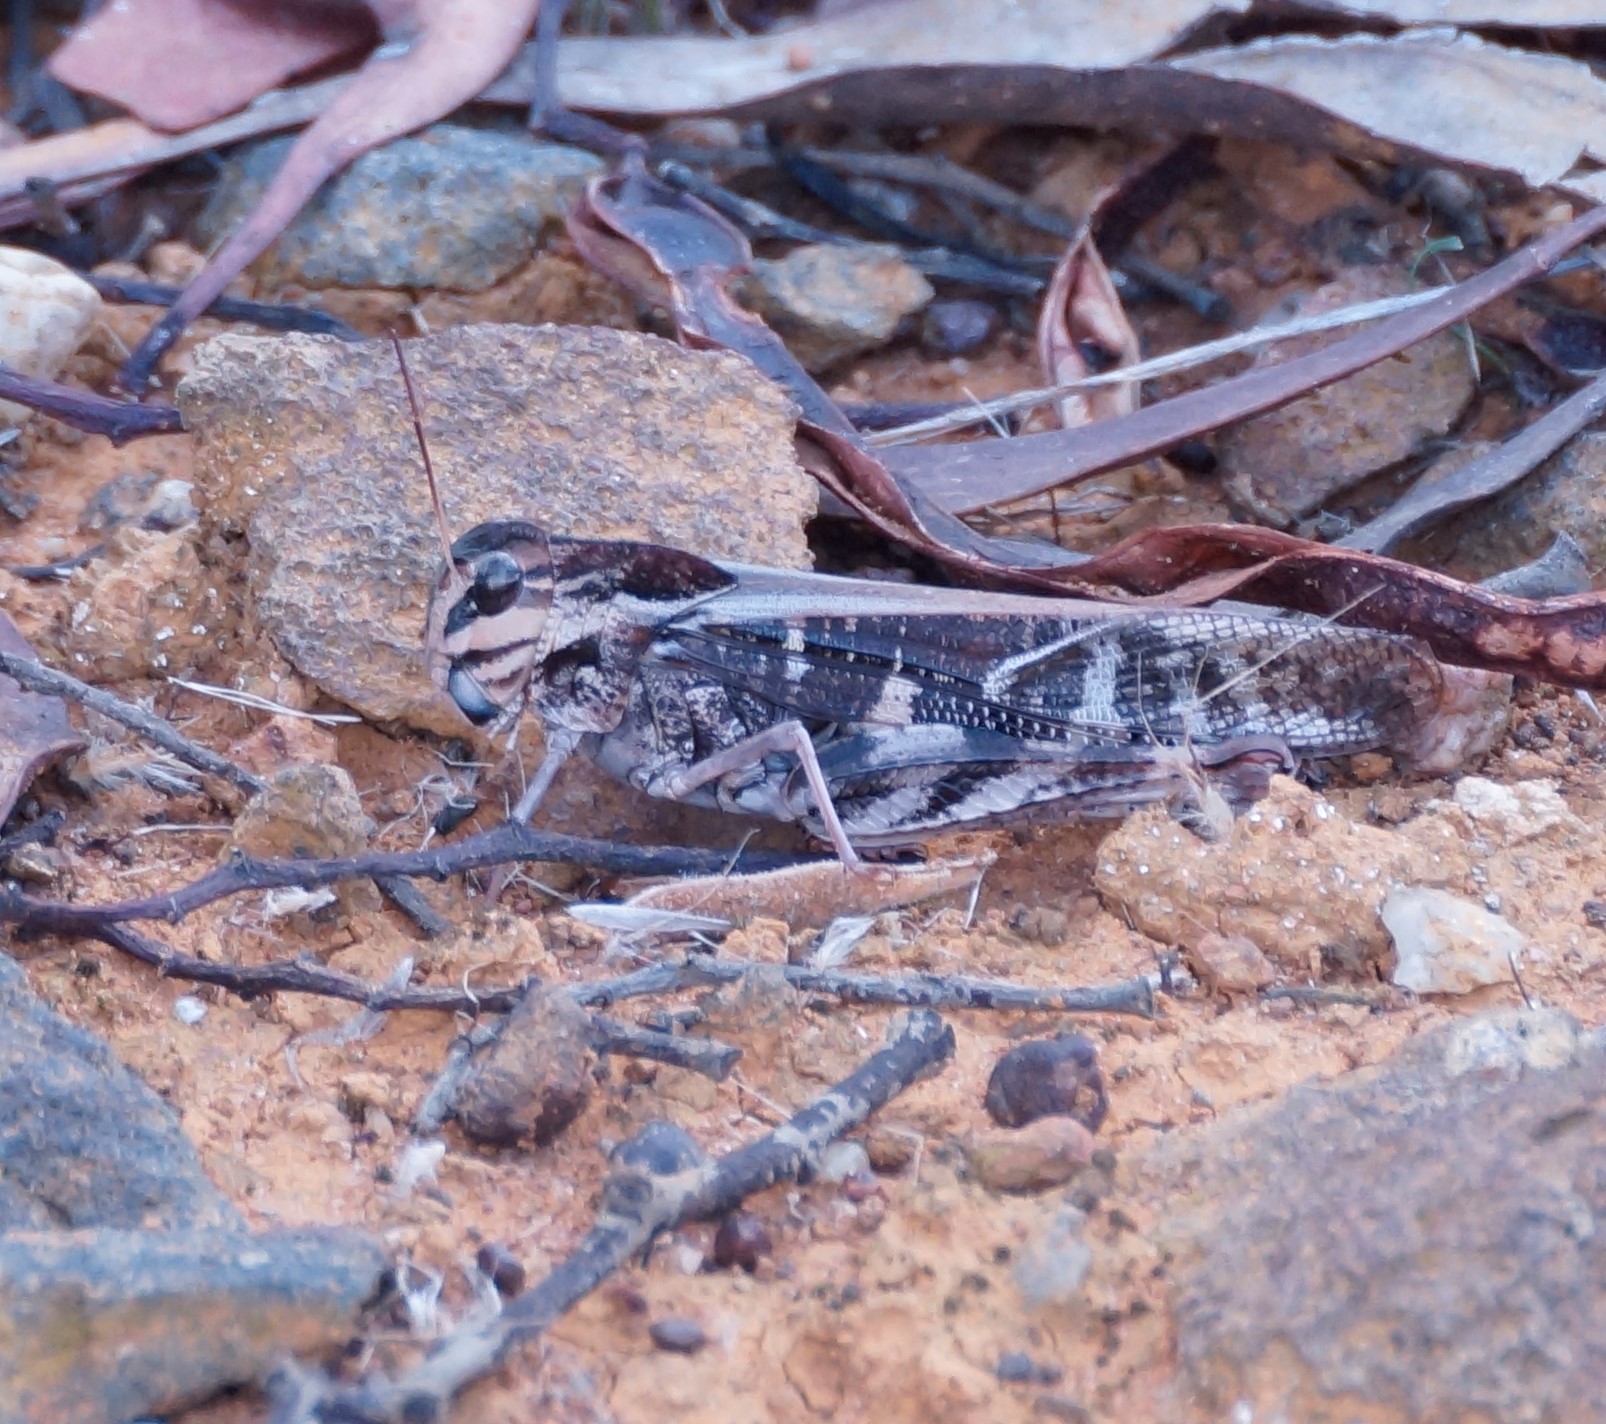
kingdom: Animalia
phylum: Arthropoda
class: Insecta
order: Orthoptera
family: Acrididae
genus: Gastrimargus
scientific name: Gastrimargus musicus
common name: Yellow-winged locust
